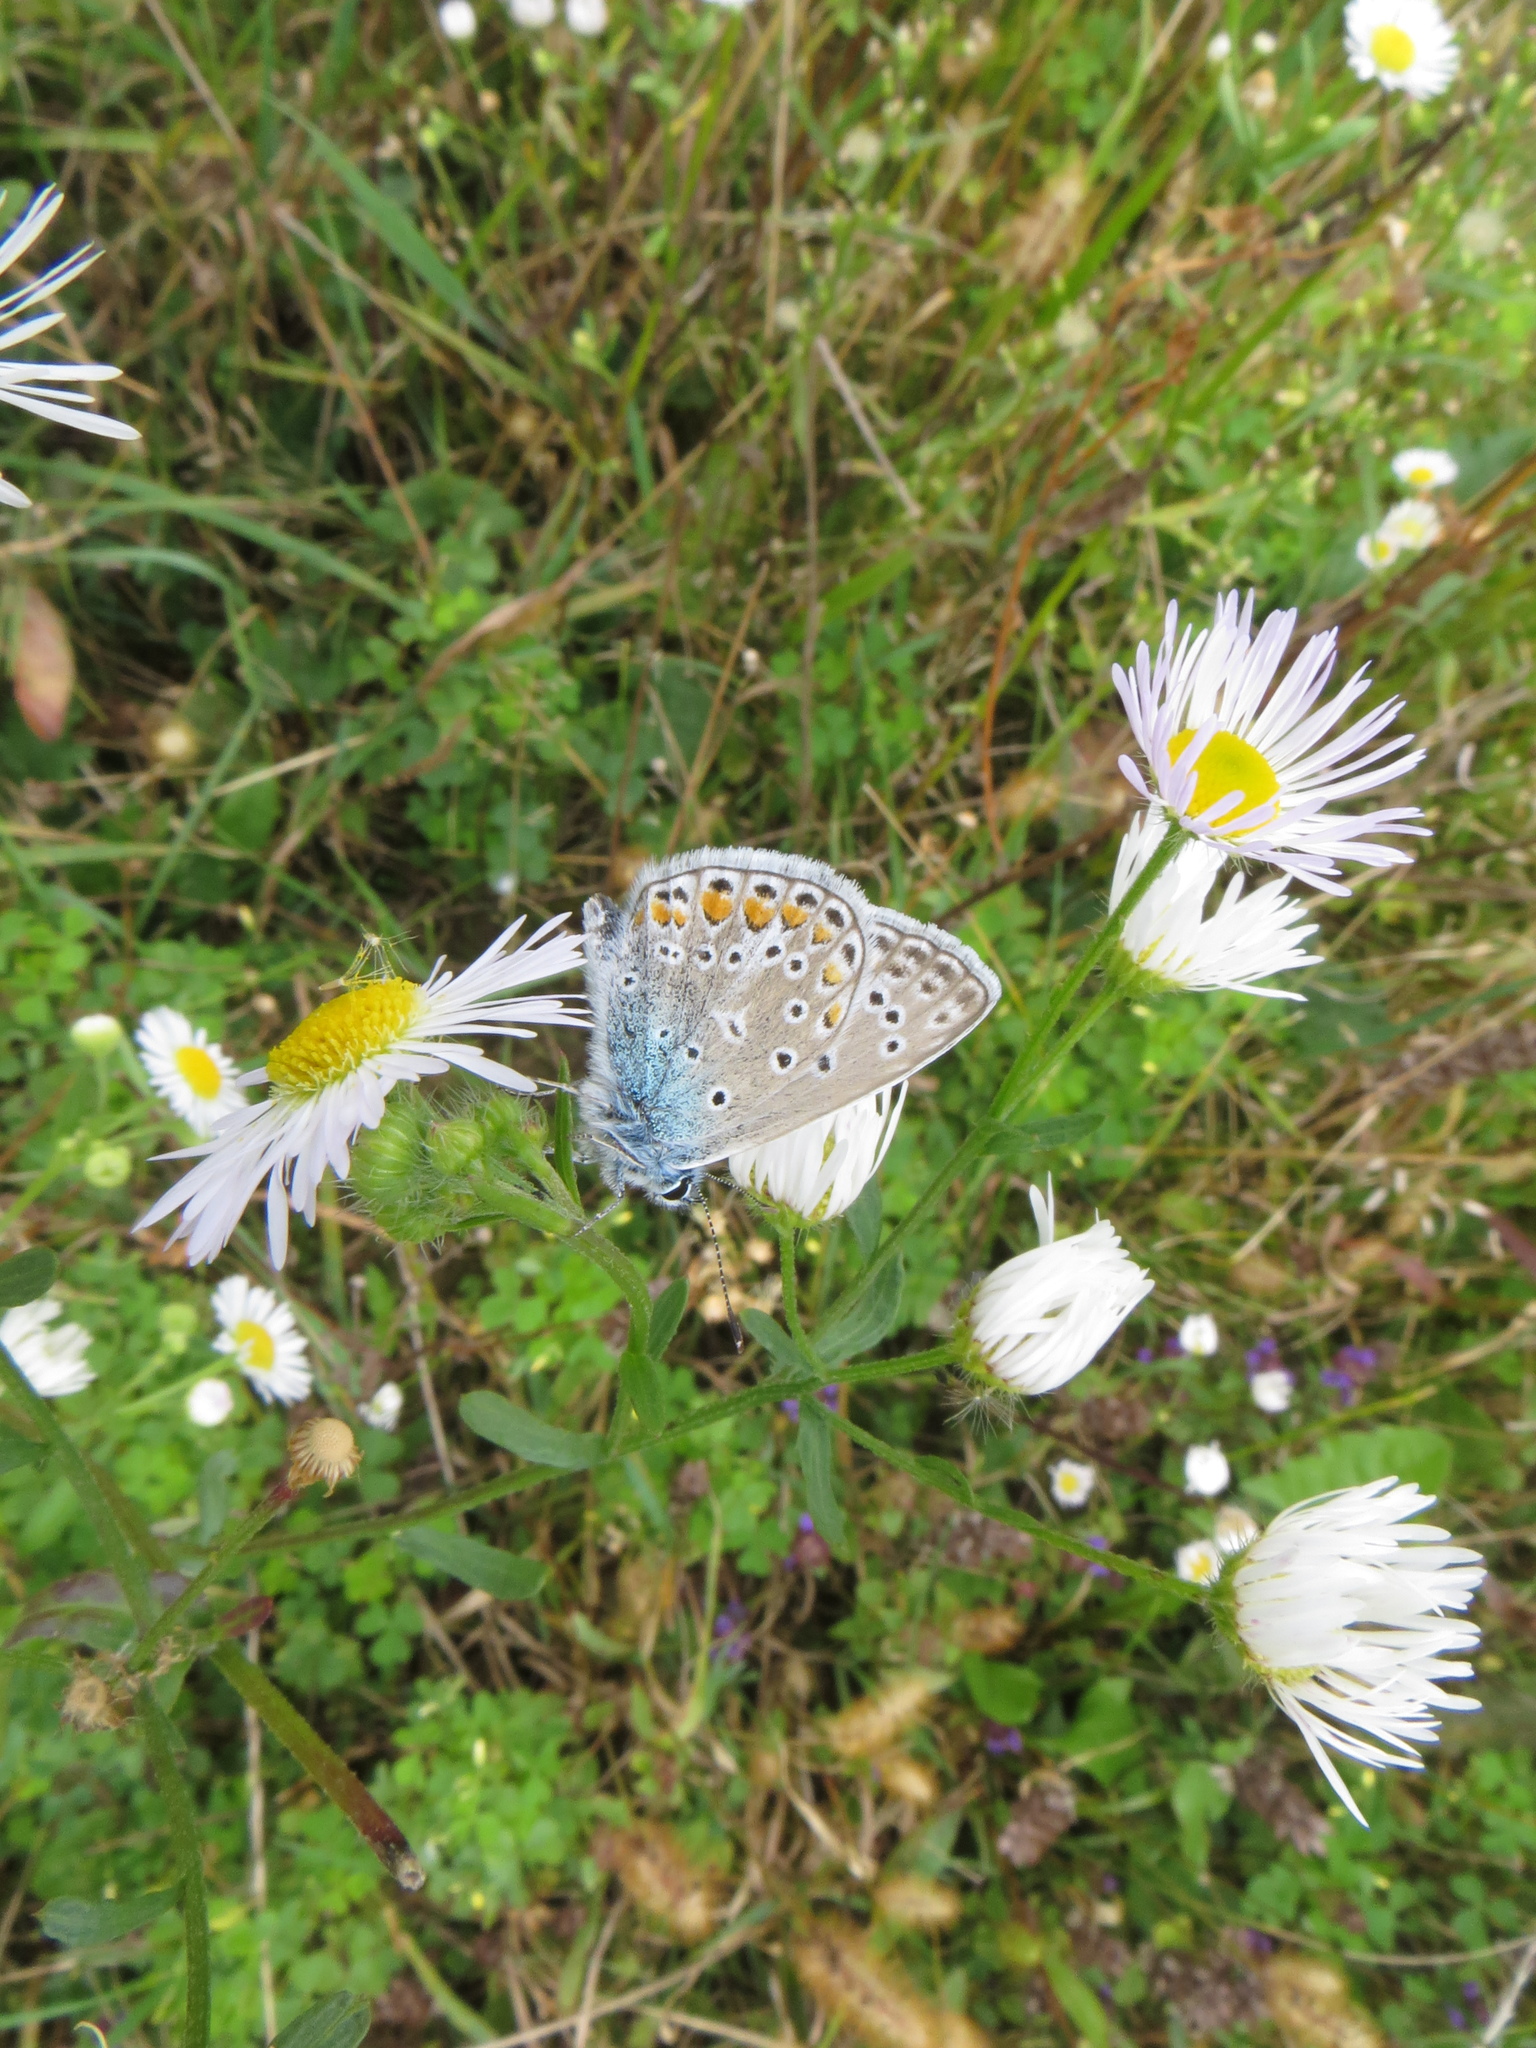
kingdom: Animalia
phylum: Arthropoda
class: Insecta
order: Lepidoptera
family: Lycaenidae
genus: Polyommatus
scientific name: Polyommatus icarus
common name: Common blue
